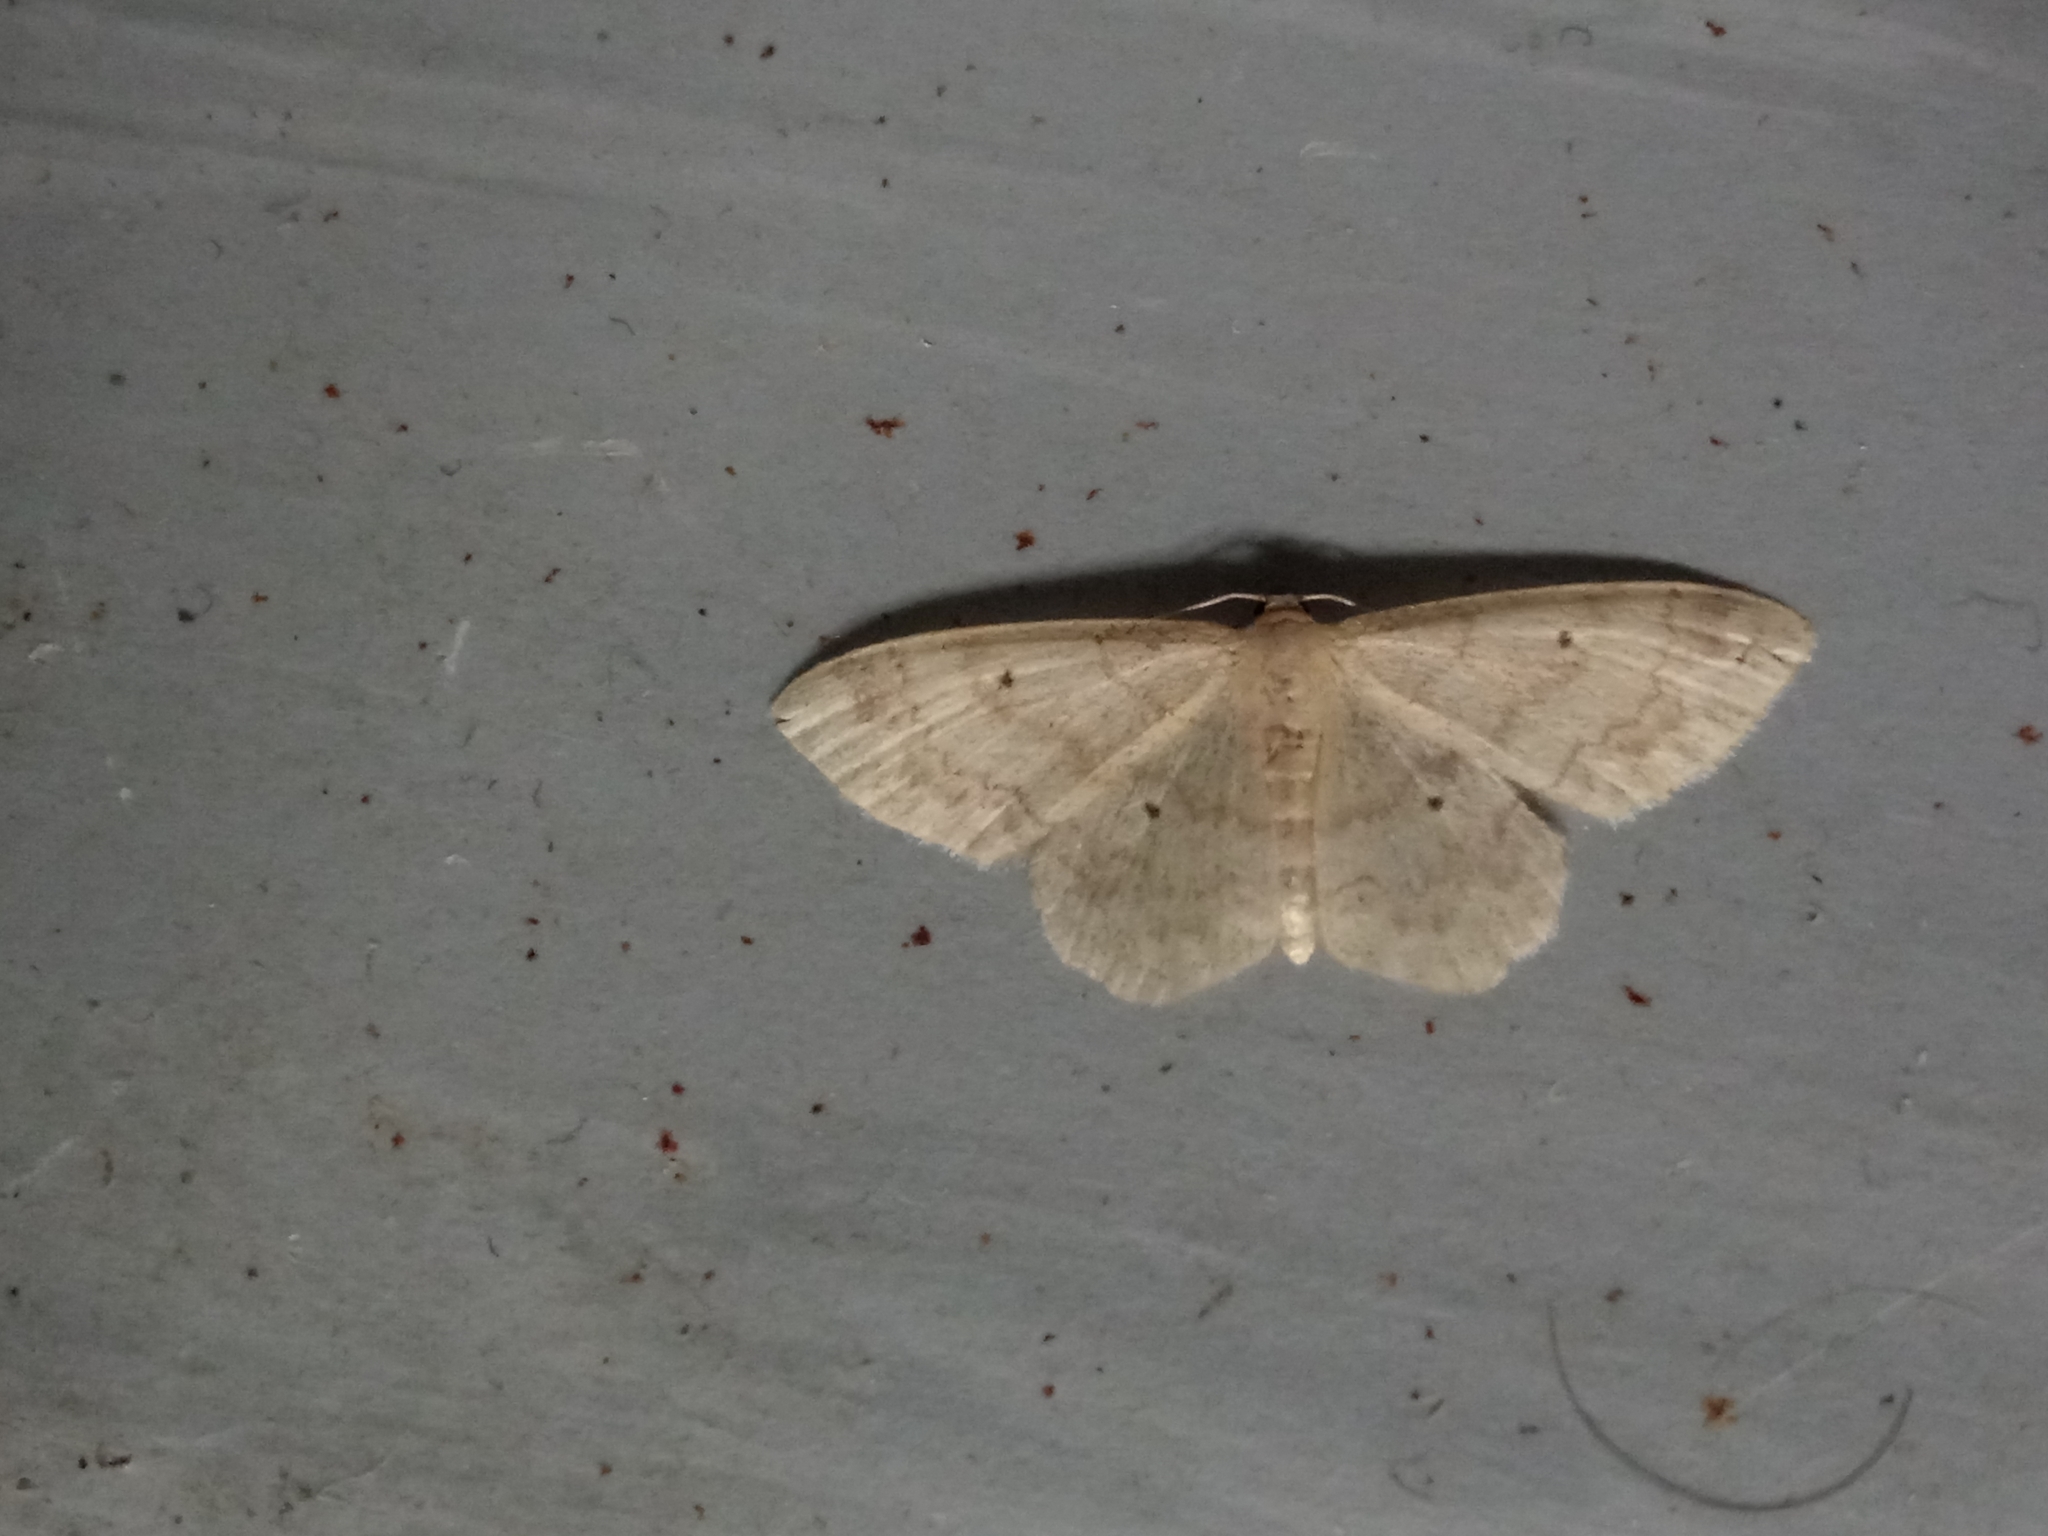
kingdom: Animalia
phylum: Arthropoda
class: Insecta
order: Lepidoptera
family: Geometridae
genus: Idaea
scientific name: Idaea biselata
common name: Small fan-footed wave
